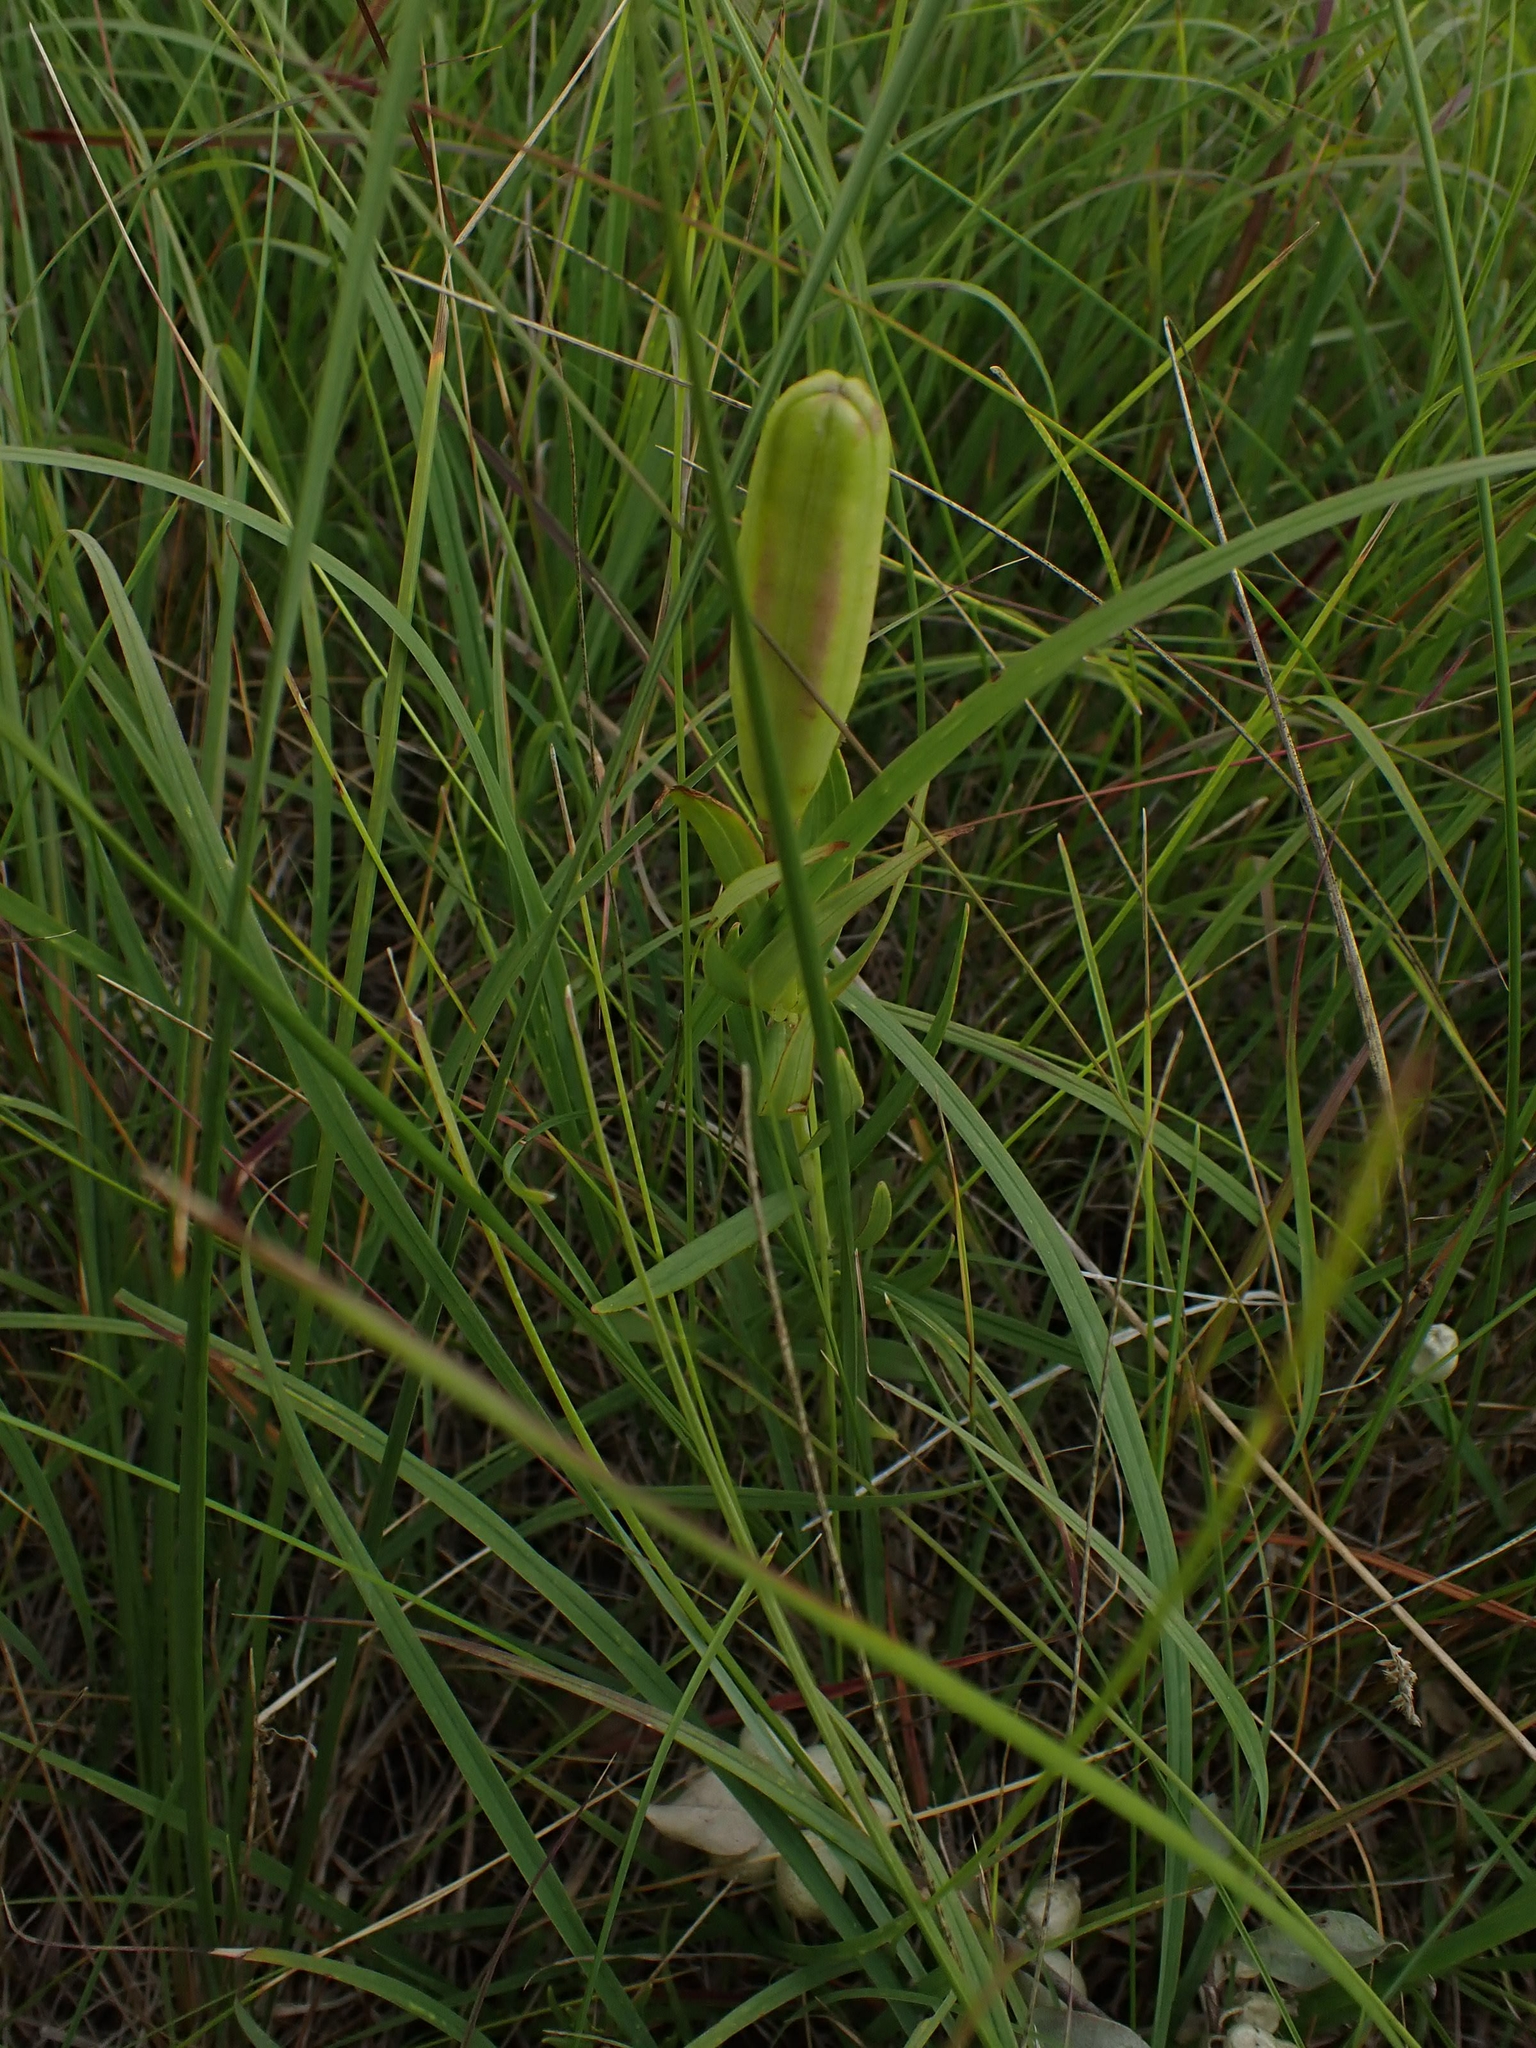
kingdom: Plantae
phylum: Tracheophyta
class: Liliopsida
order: Liliales
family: Liliaceae
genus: Lilium
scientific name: Lilium philadelphicum
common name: Red lily
